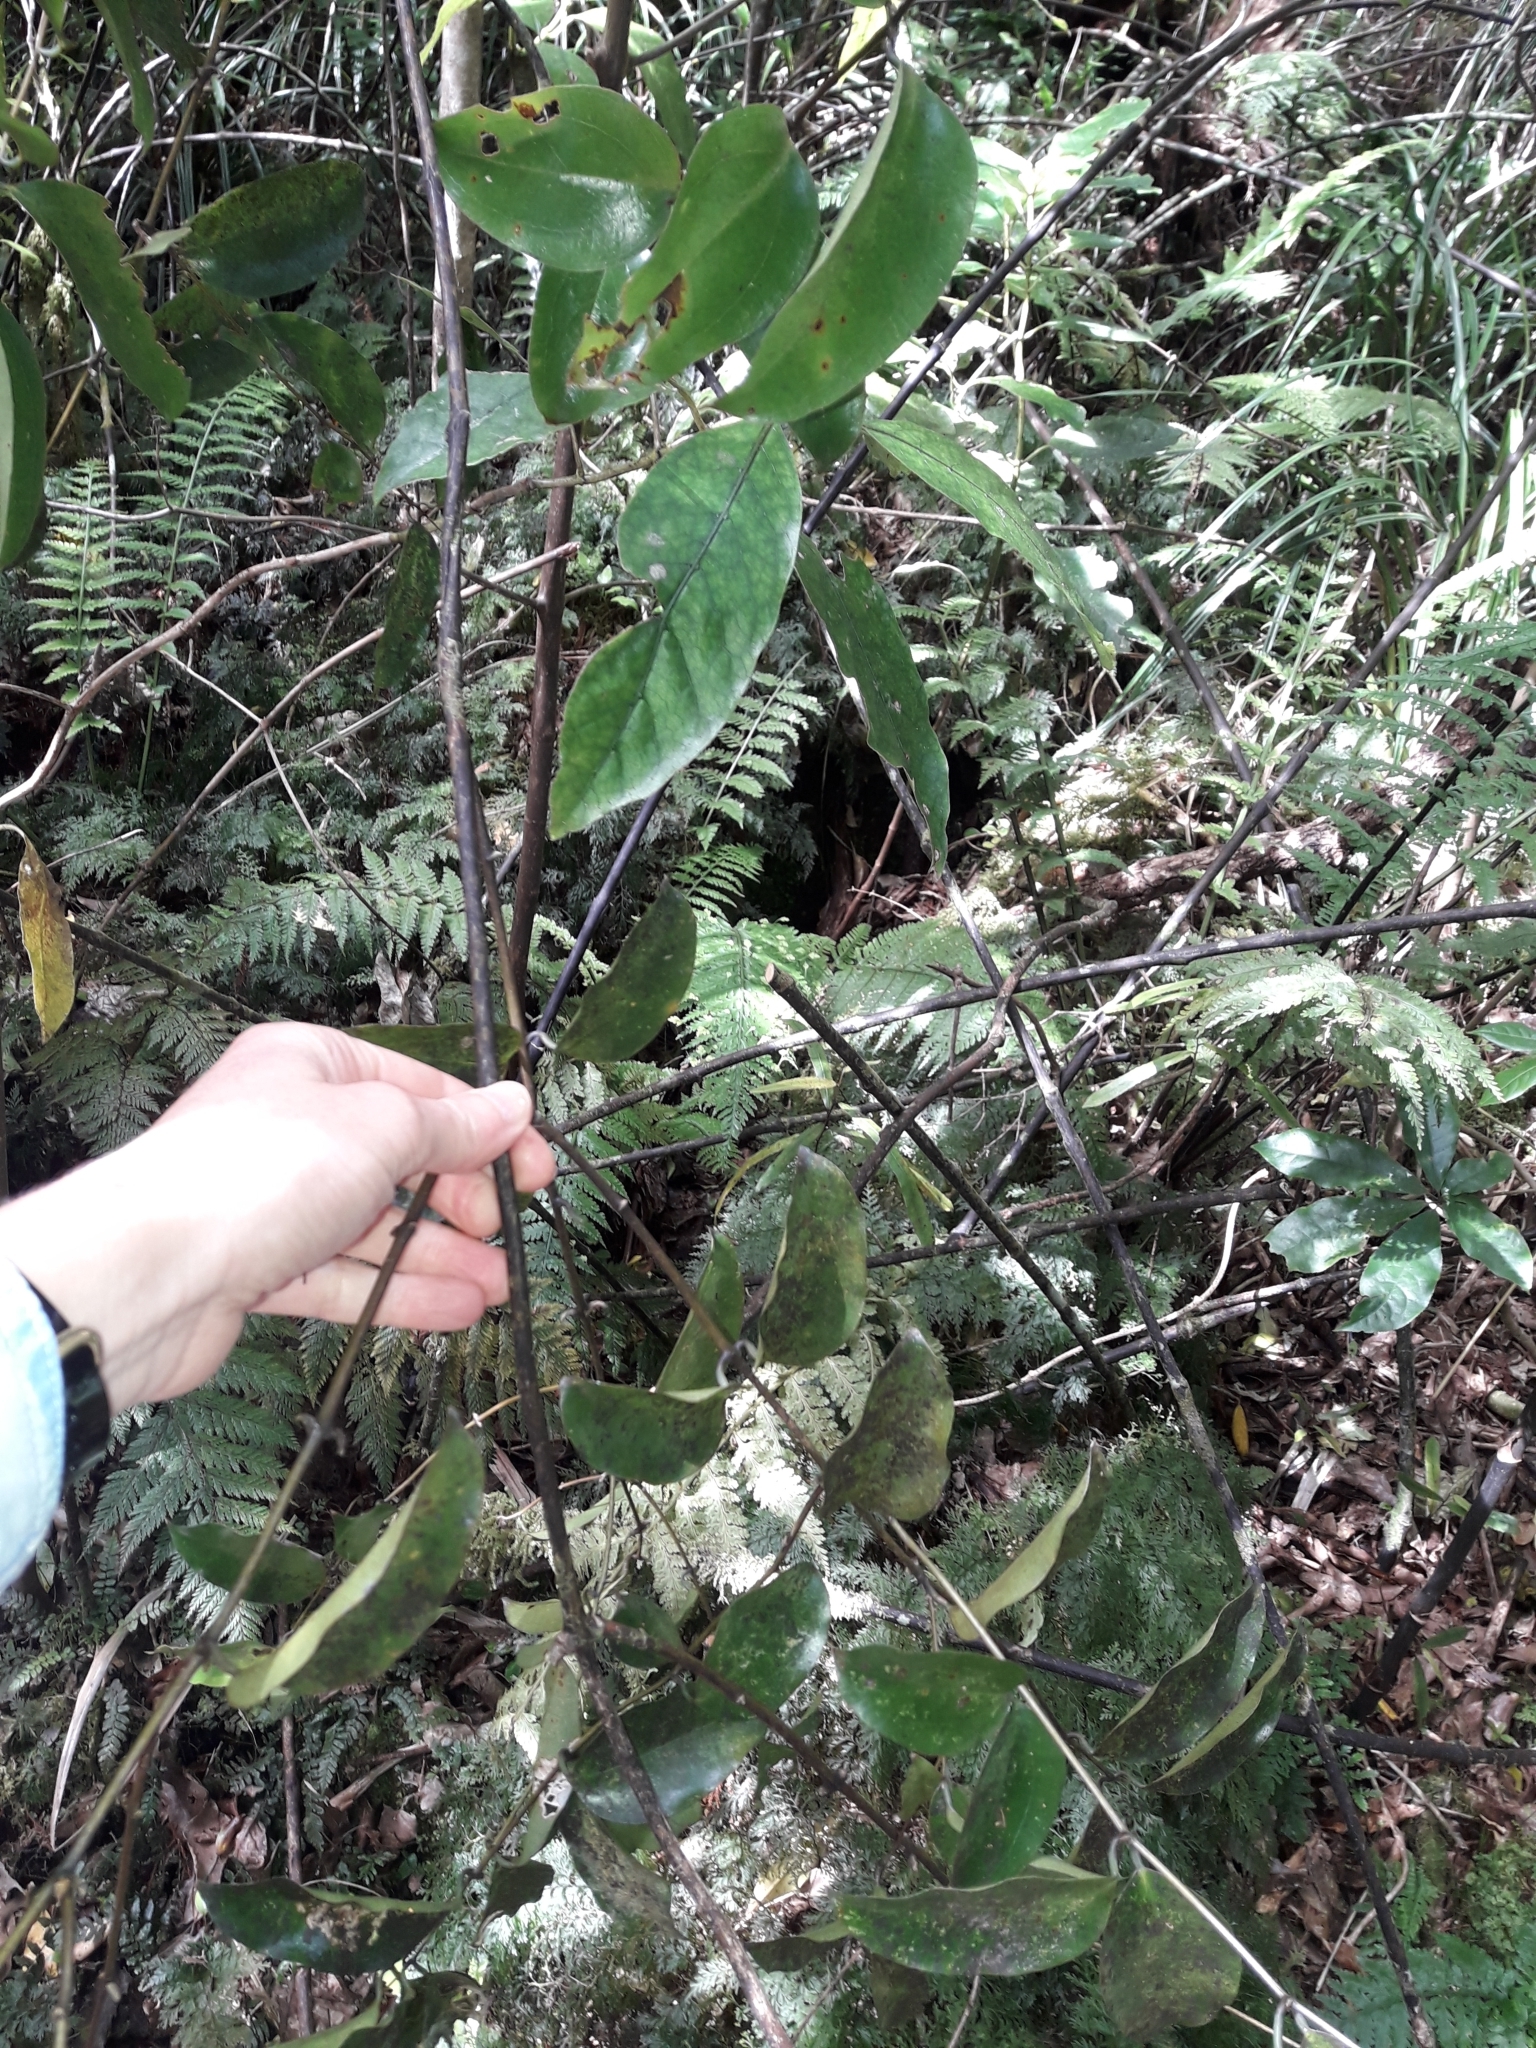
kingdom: Plantae
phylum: Tracheophyta
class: Liliopsida
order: Liliales
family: Ripogonaceae
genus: Ripogonum
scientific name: Ripogonum scandens
